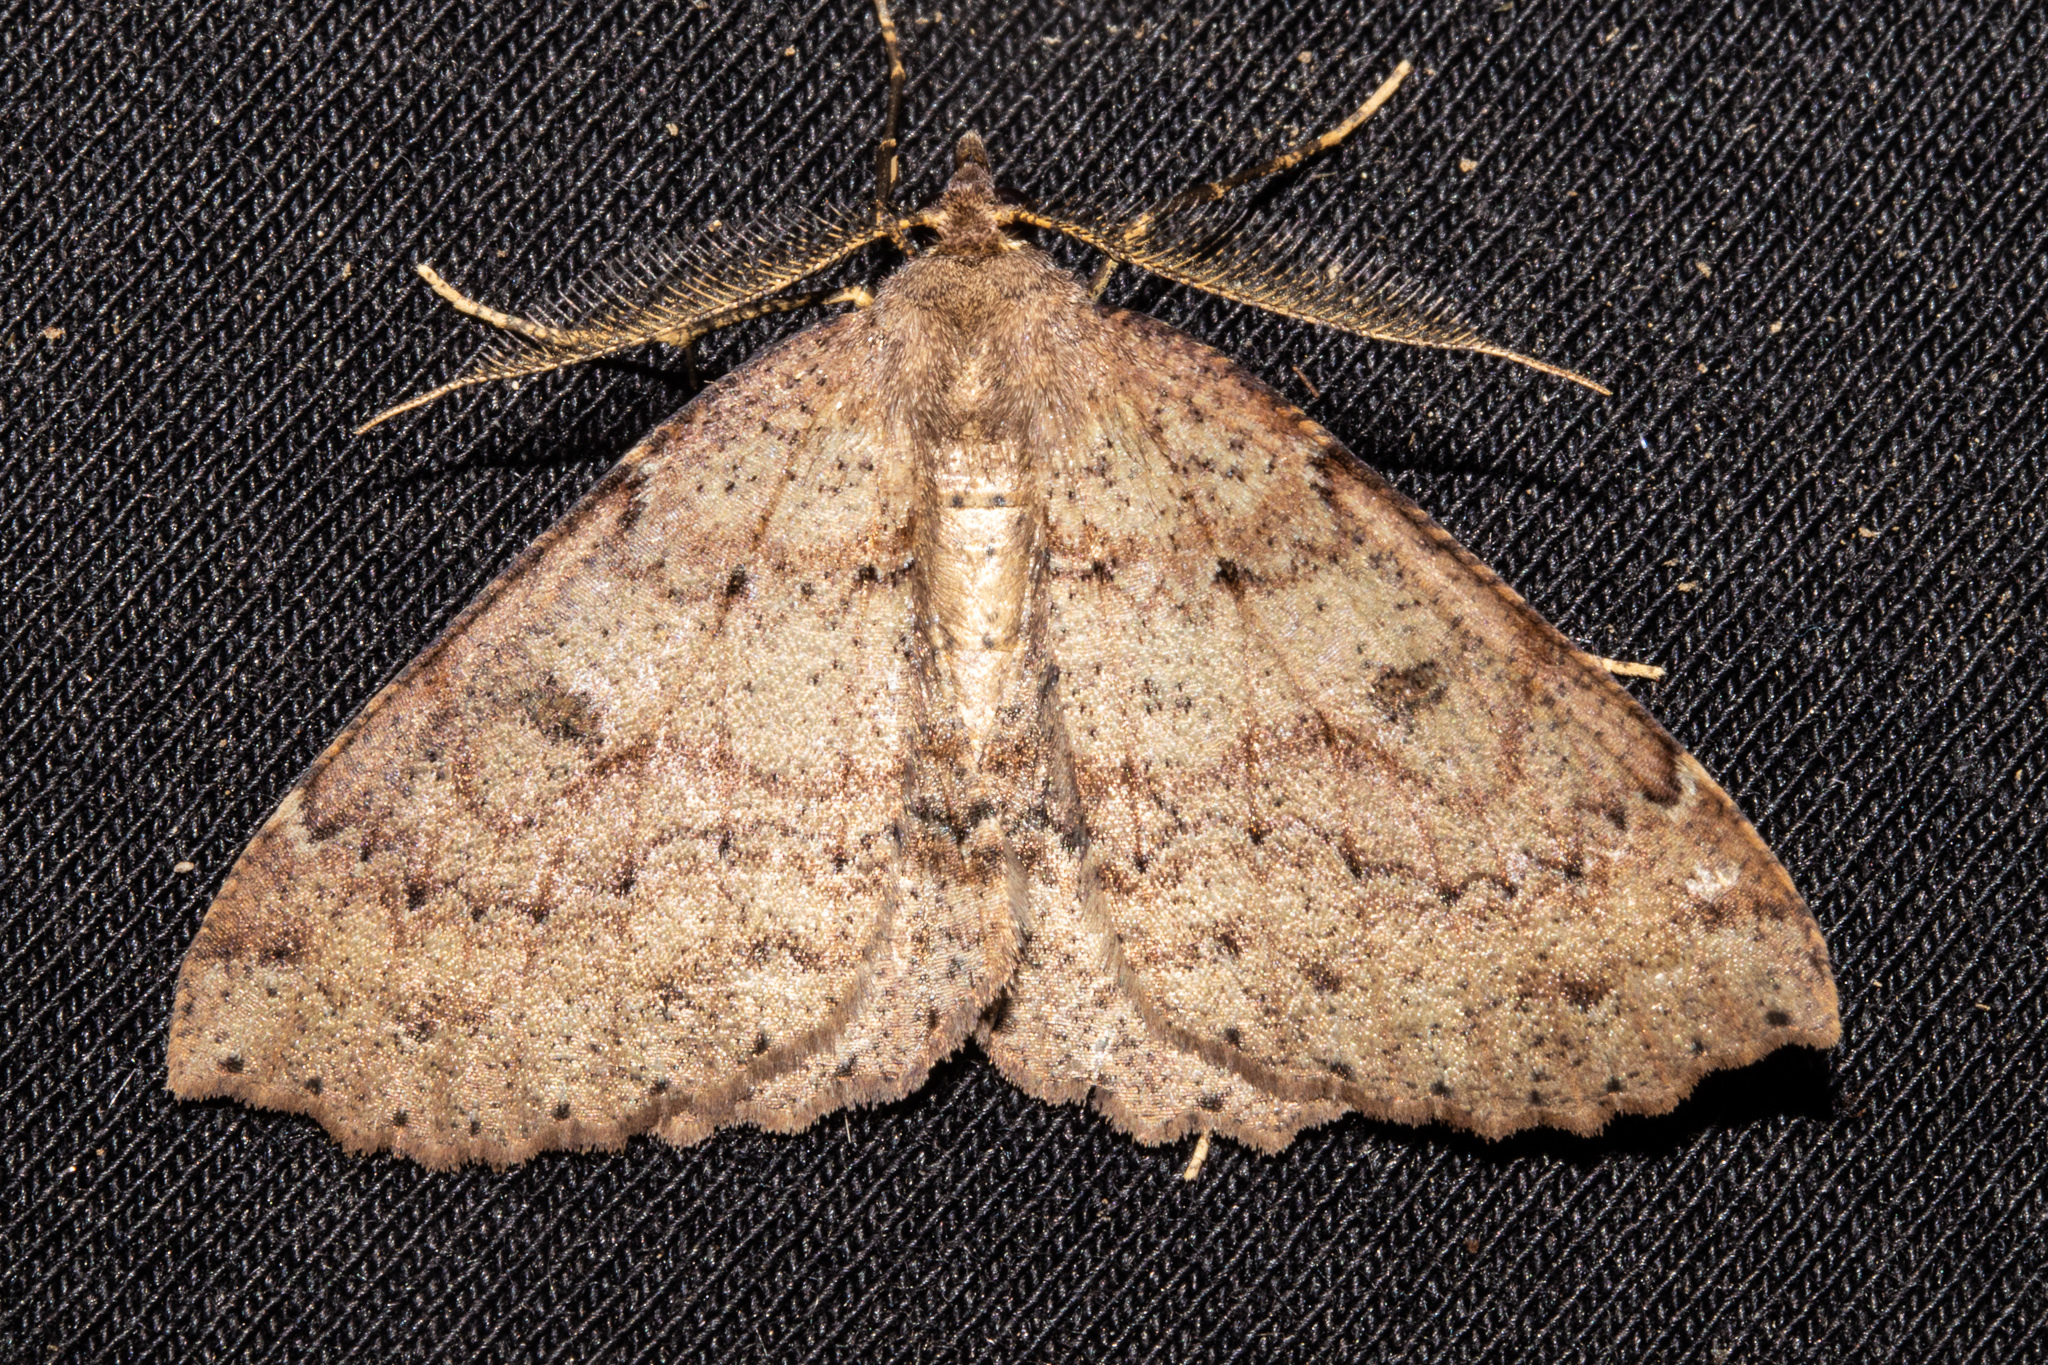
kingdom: Animalia
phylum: Arthropoda
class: Insecta
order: Lepidoptera
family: Geometridae
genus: Cleora
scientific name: Cleora scriptaria
